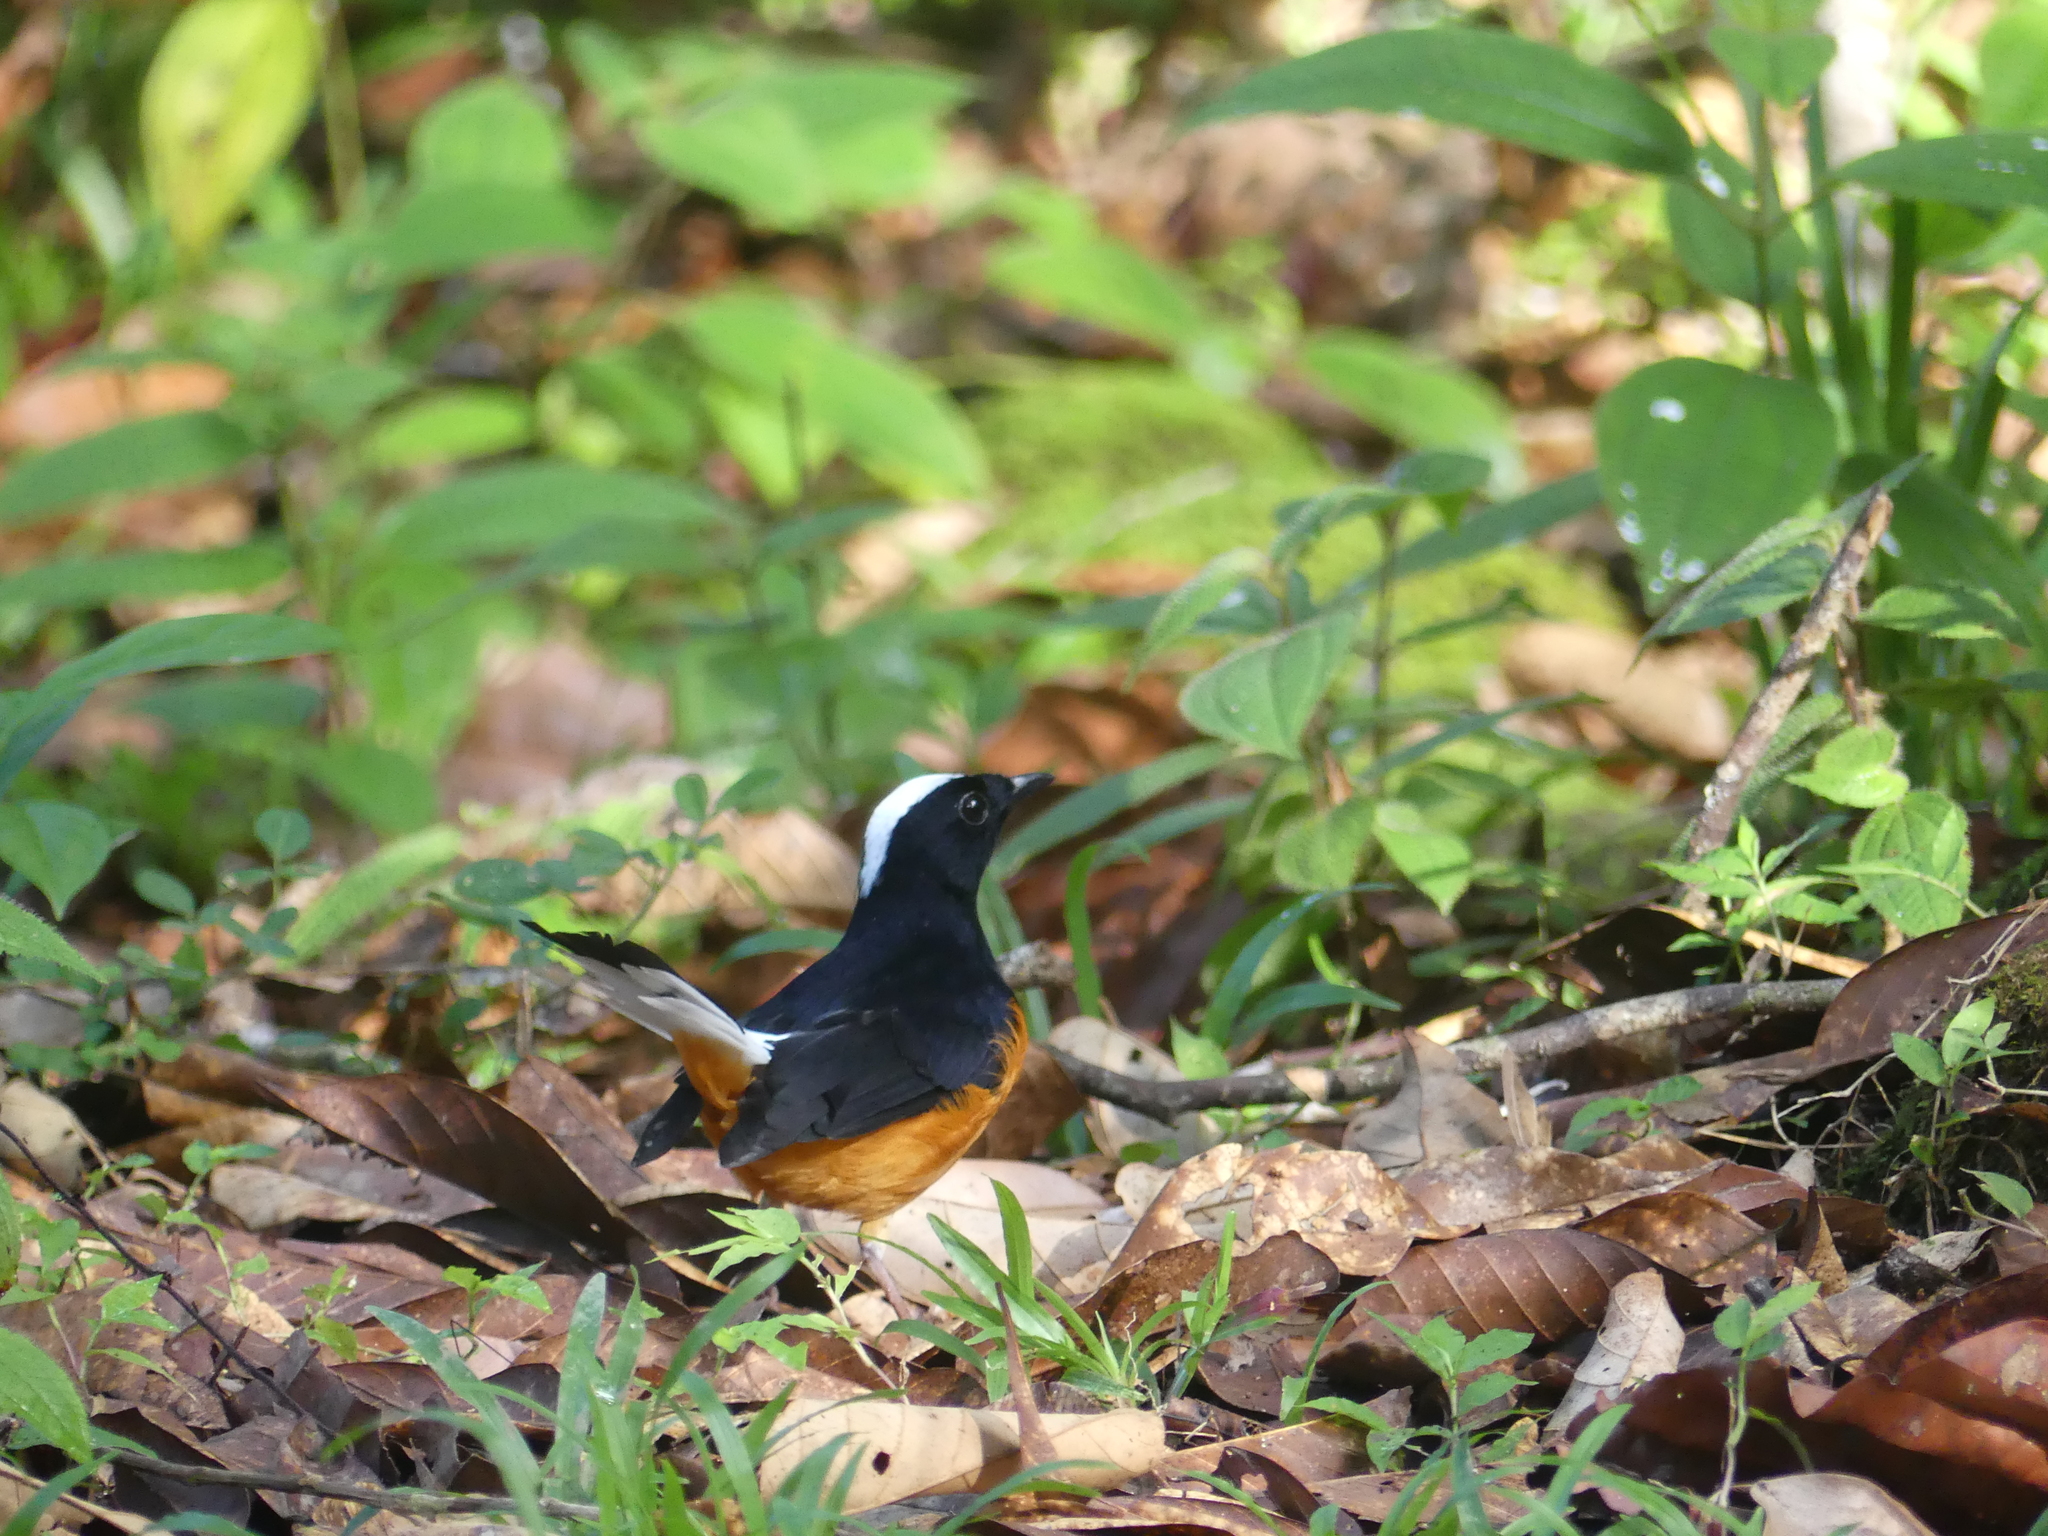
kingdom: Animalia
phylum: Chordata
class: Aves
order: Passeriformes
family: Muscicapidae
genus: Copsychus
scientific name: Copsychus stricklandii
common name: White-crowned shama
